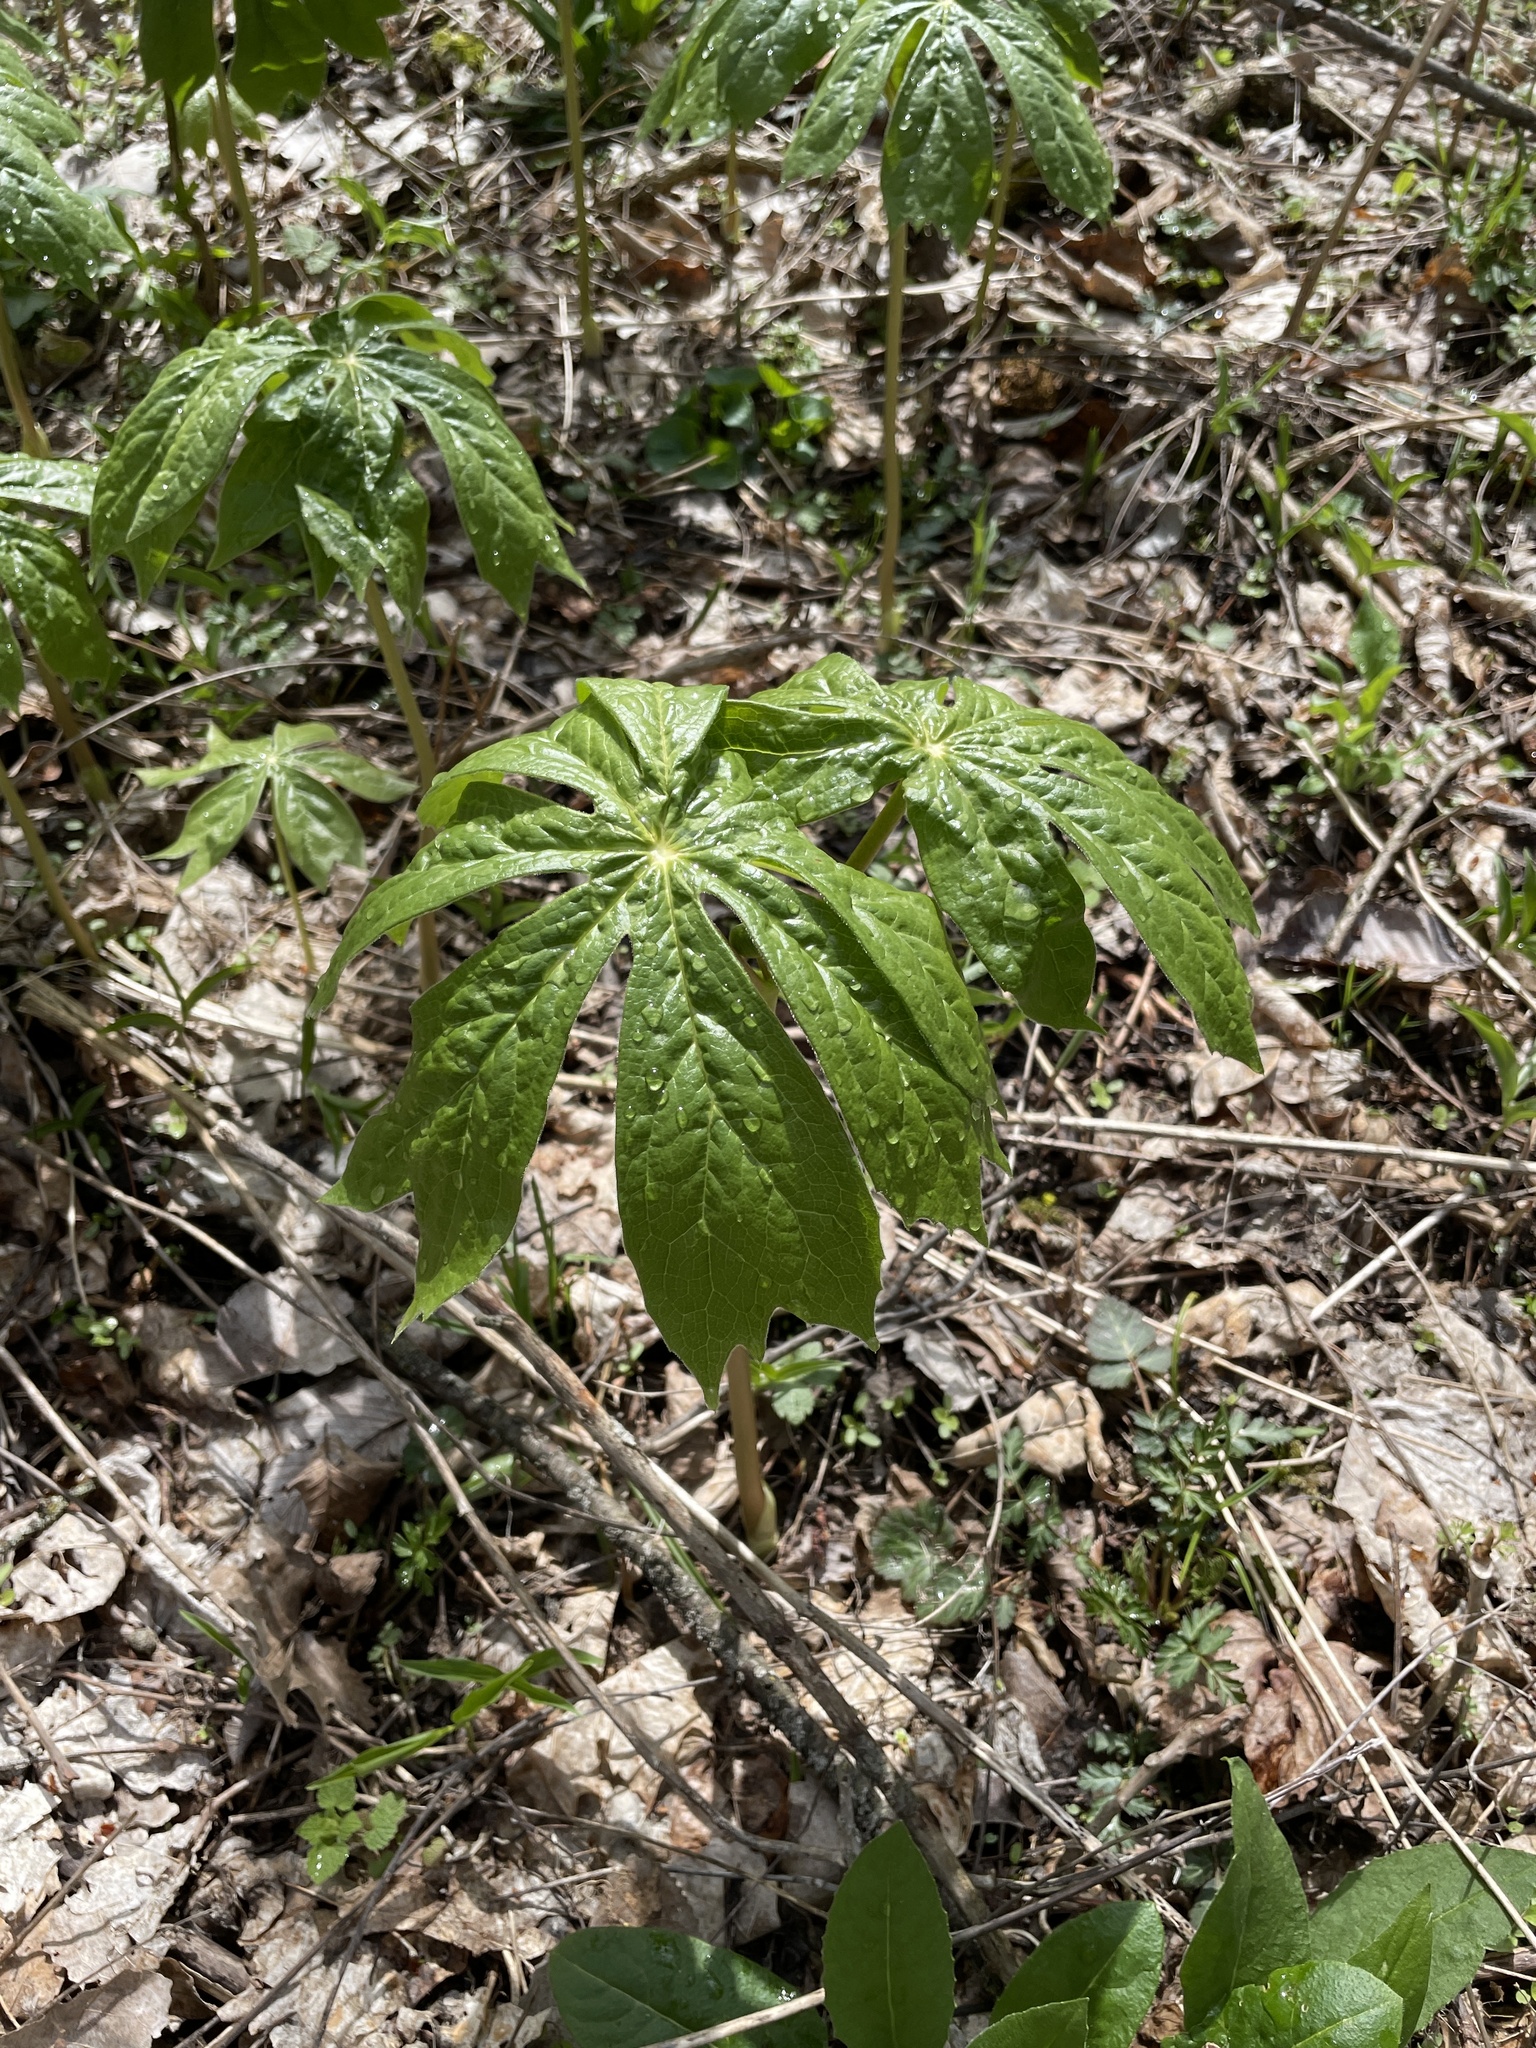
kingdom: Plantae
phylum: Tracheophyta
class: Magnoliopsida
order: Ranunculales
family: Berberidaceae
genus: Podophyllum
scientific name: Podophyllum peltatum
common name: Wild mandrake
